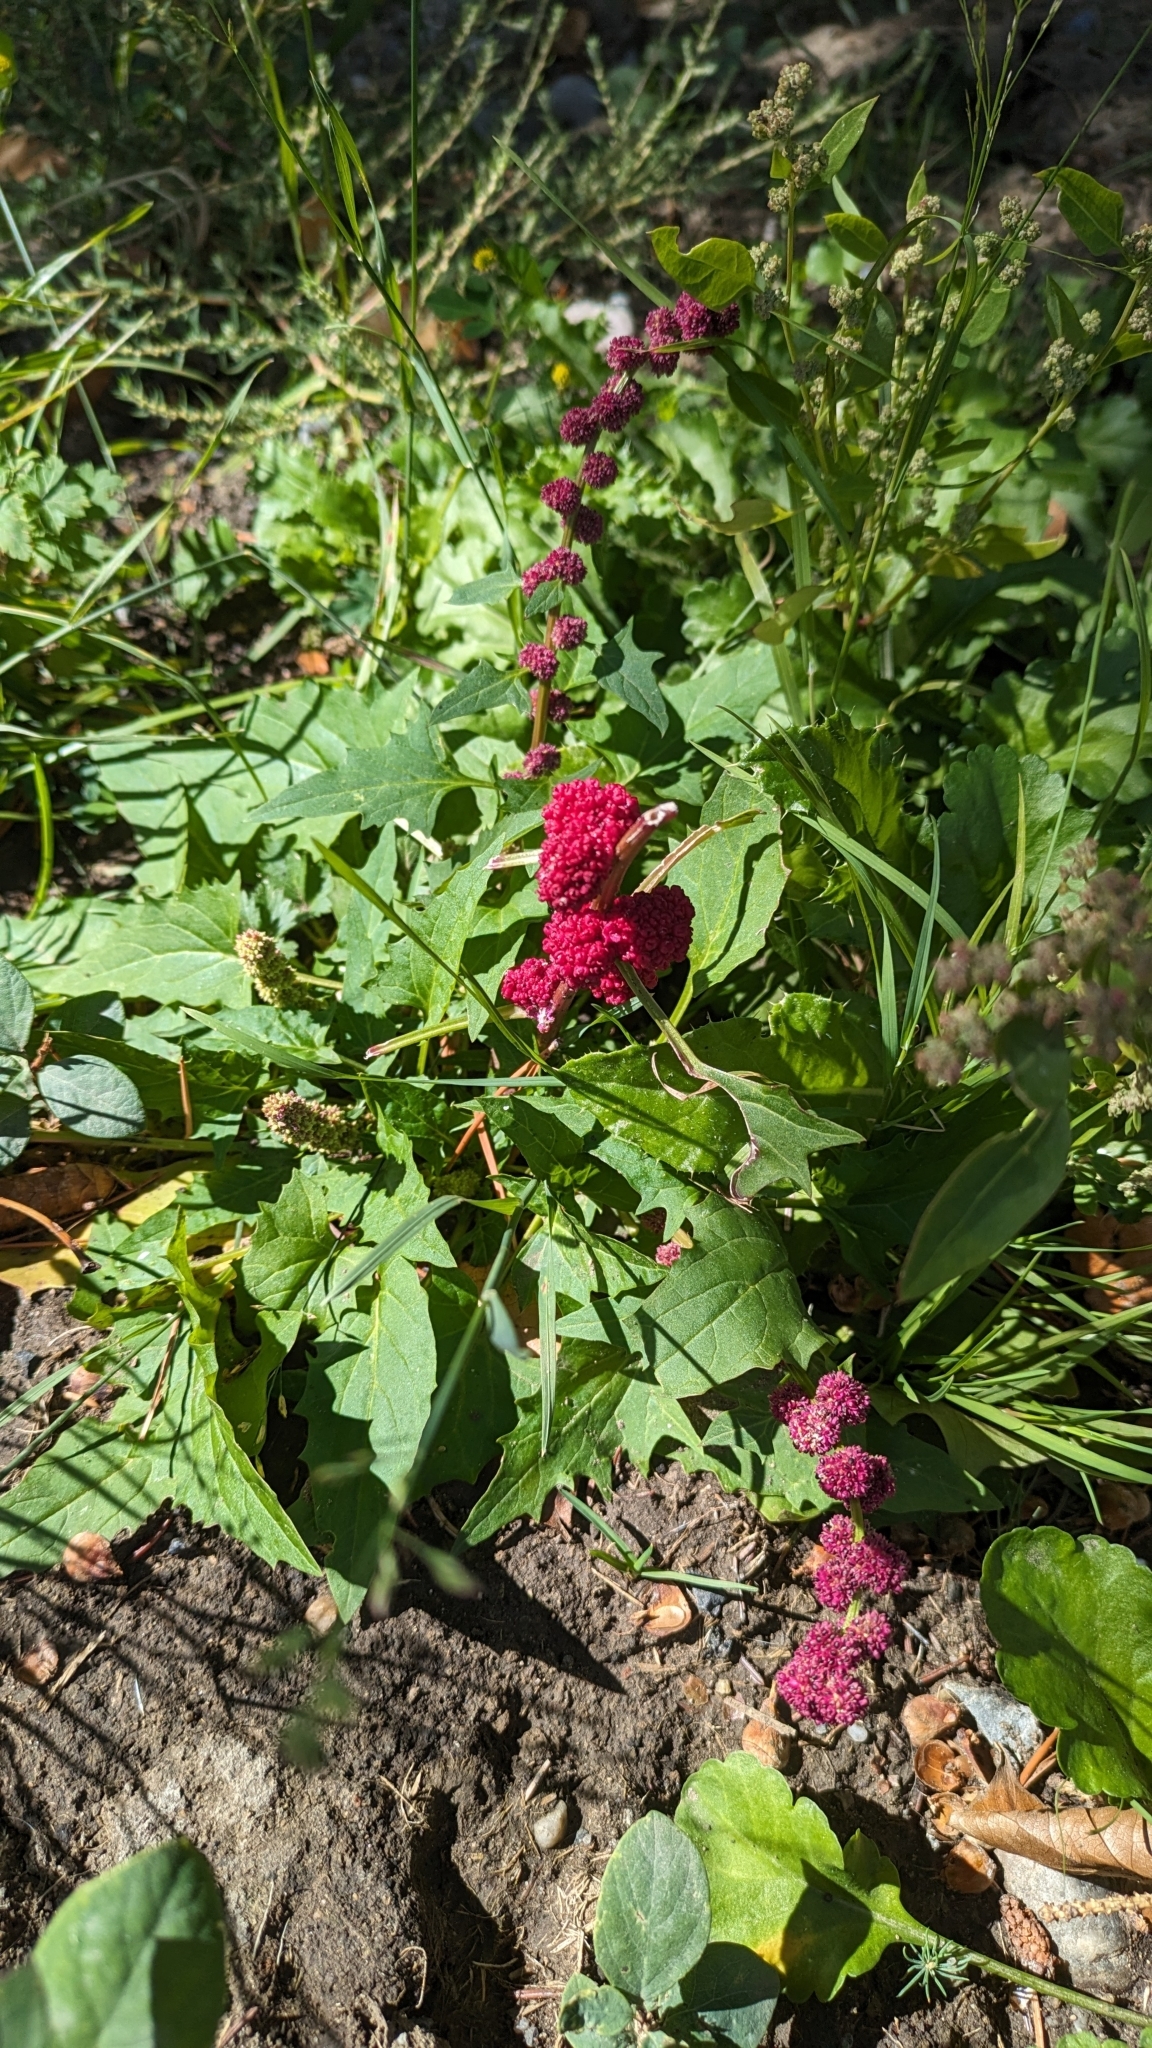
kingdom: Plantae
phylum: Tracheophyta
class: Magnoliopsida
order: Caryophyllales
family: Amaranthaceae
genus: Blitum
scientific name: Blitum capitatum
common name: Strawberry-blight
